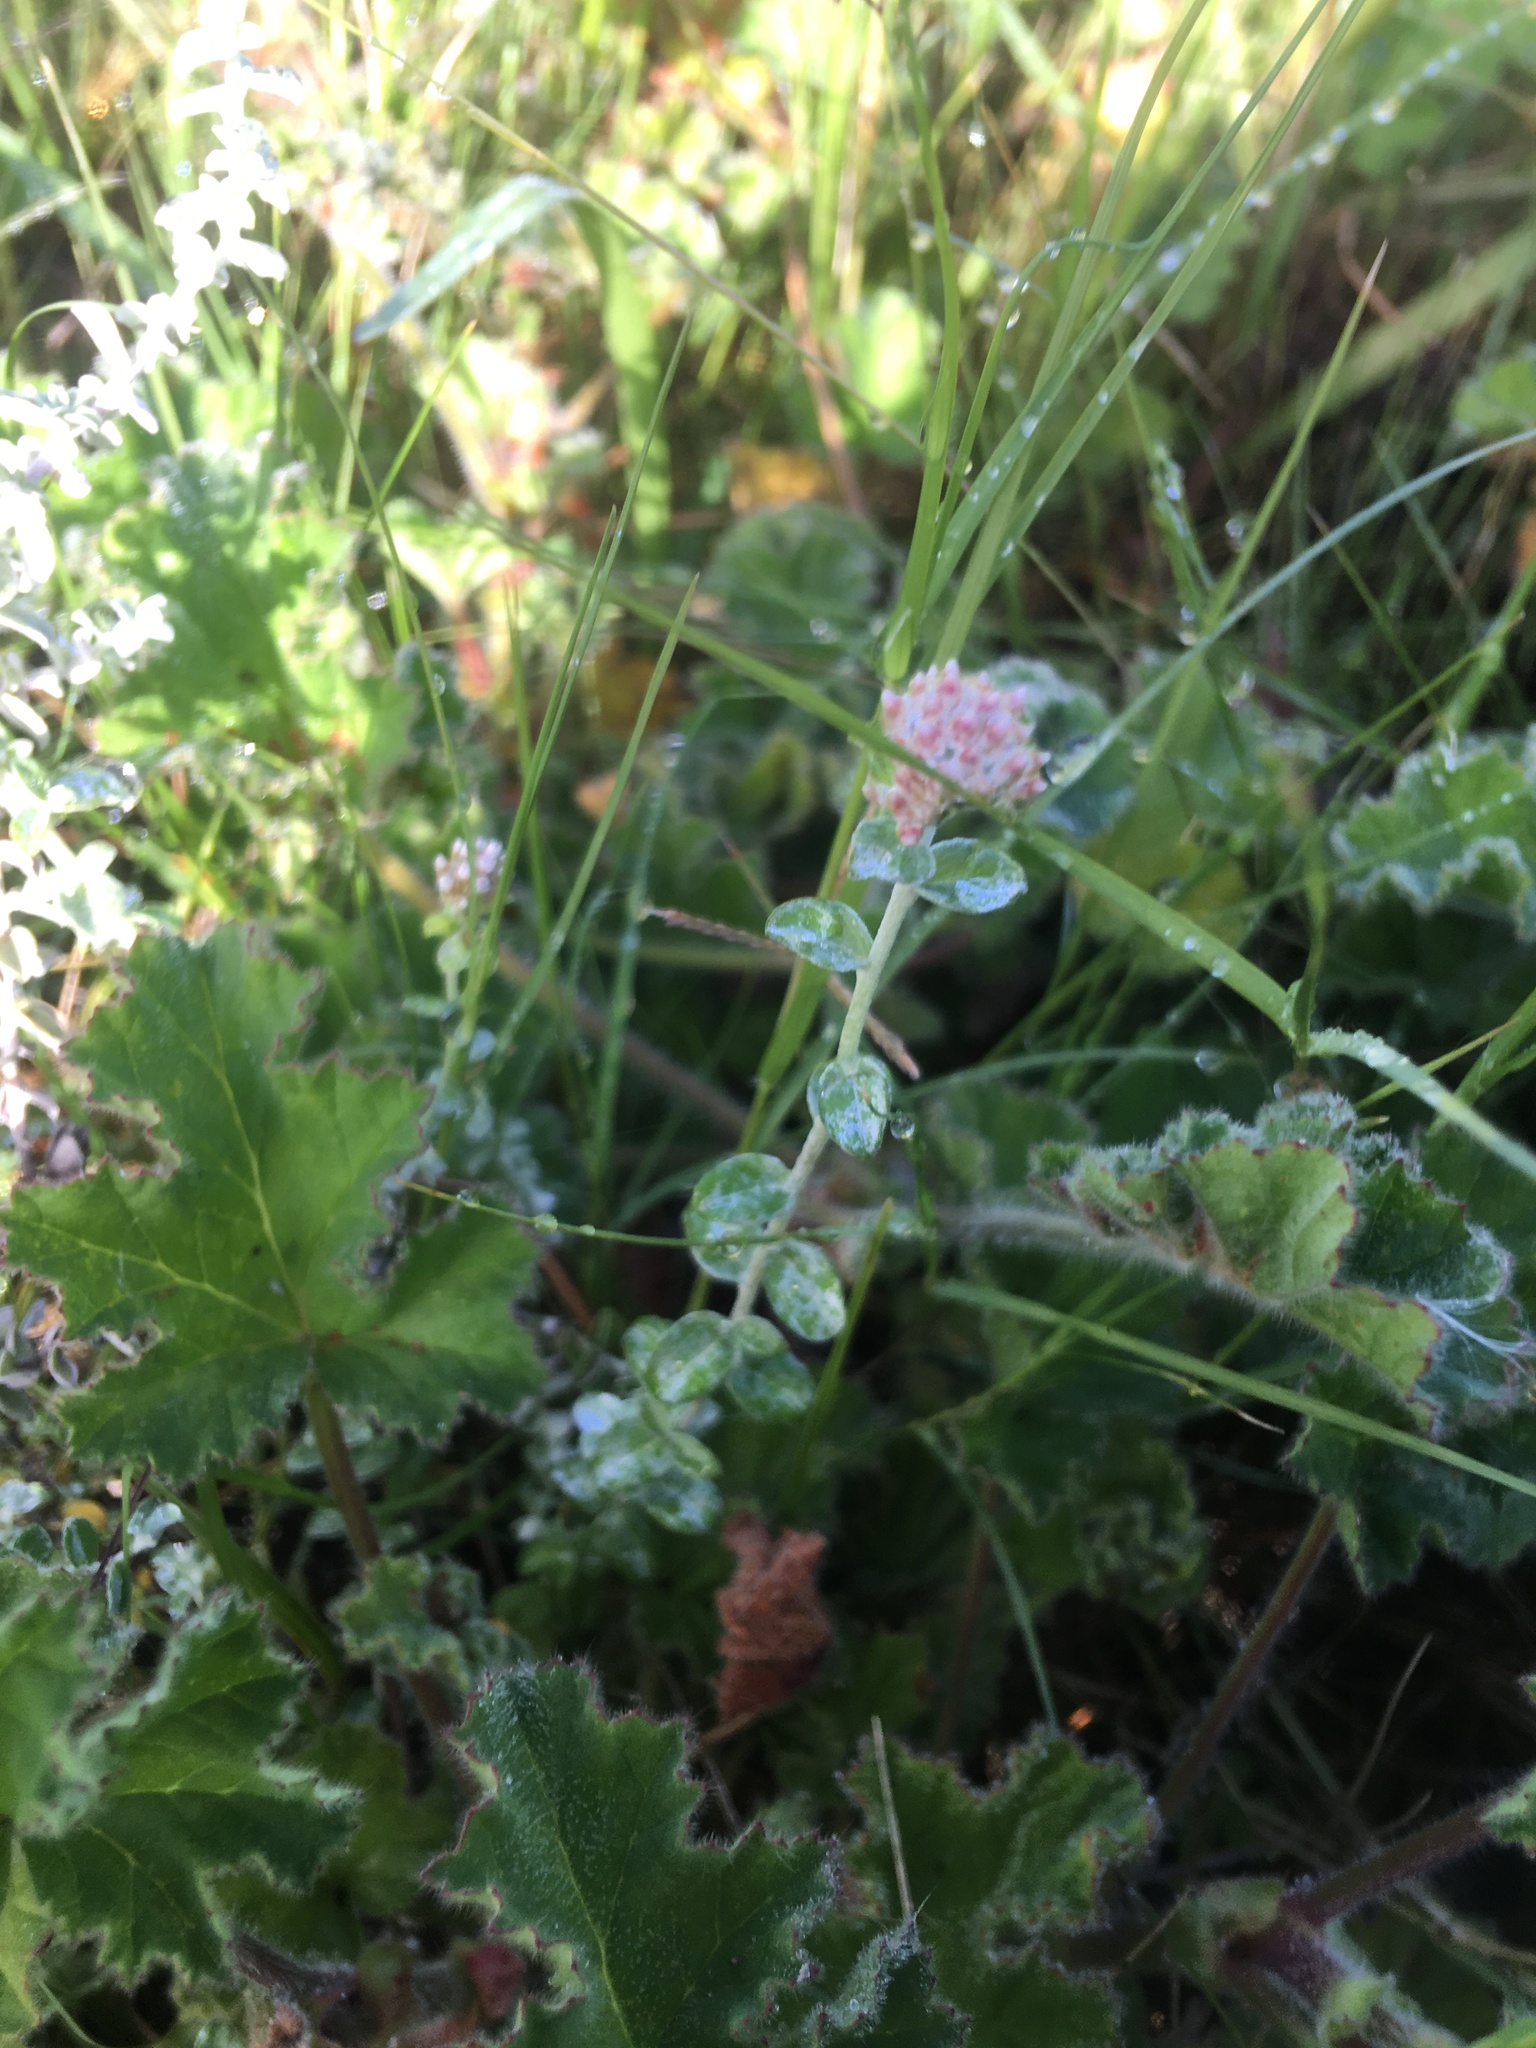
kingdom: Plantae
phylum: Tracheophyta
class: Magnoliopsida
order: Asterales
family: Asteraceae
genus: Plecostachys
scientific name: Plecostachys serpyllifolia
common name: Petite licorice
